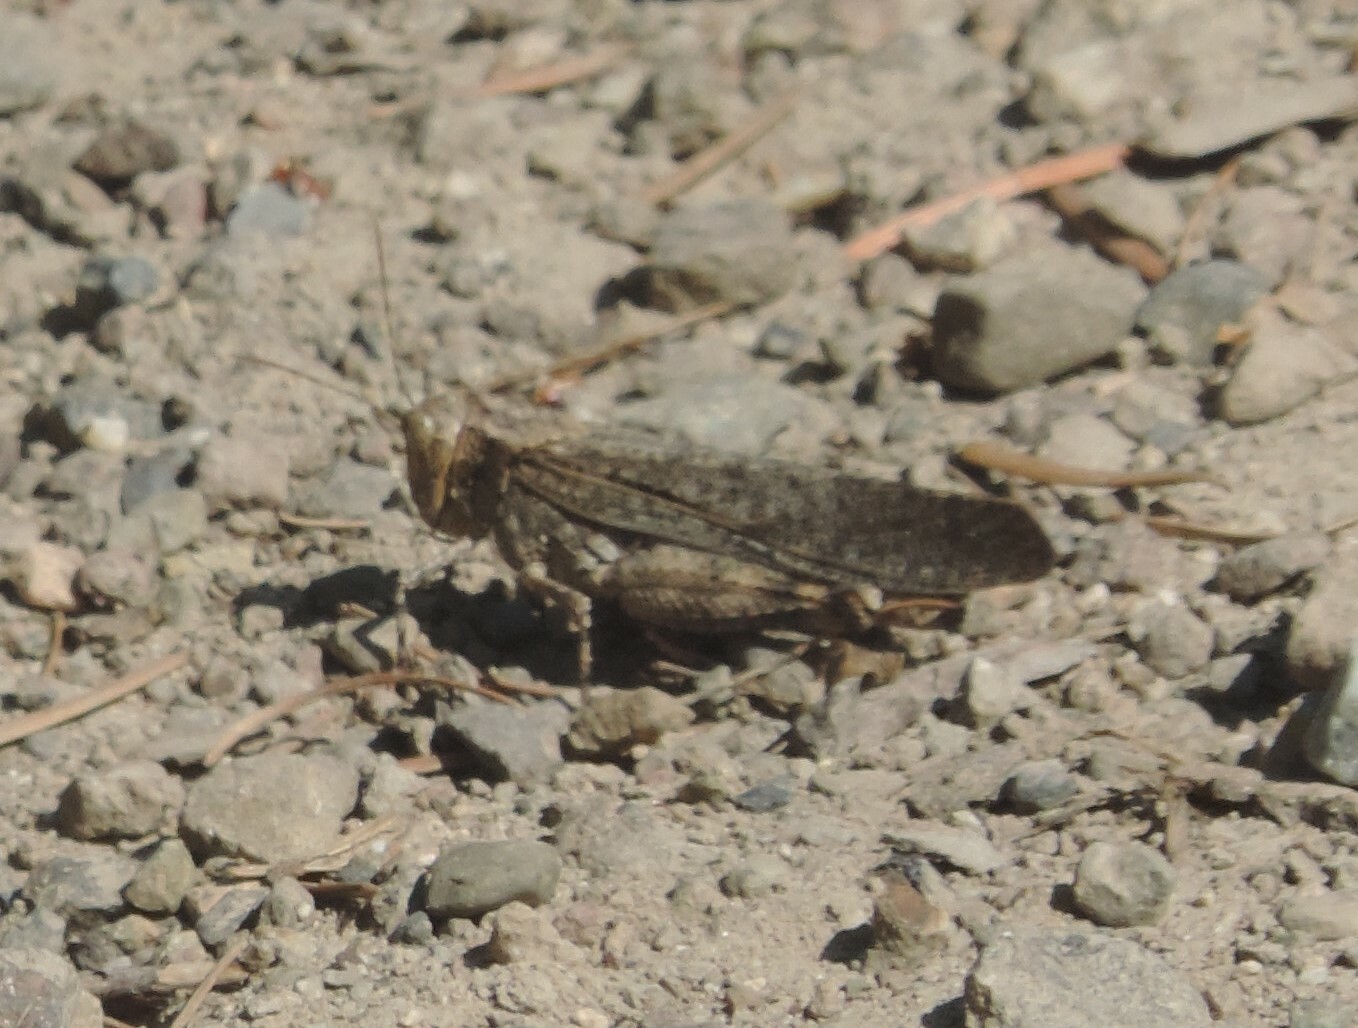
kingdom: Animalia
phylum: Arthropoda
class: Insecta
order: Orthoptera
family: Acrididae
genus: Trimerotropis
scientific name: Trimerotropis verruculata
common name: Crackling forest grasshopper
